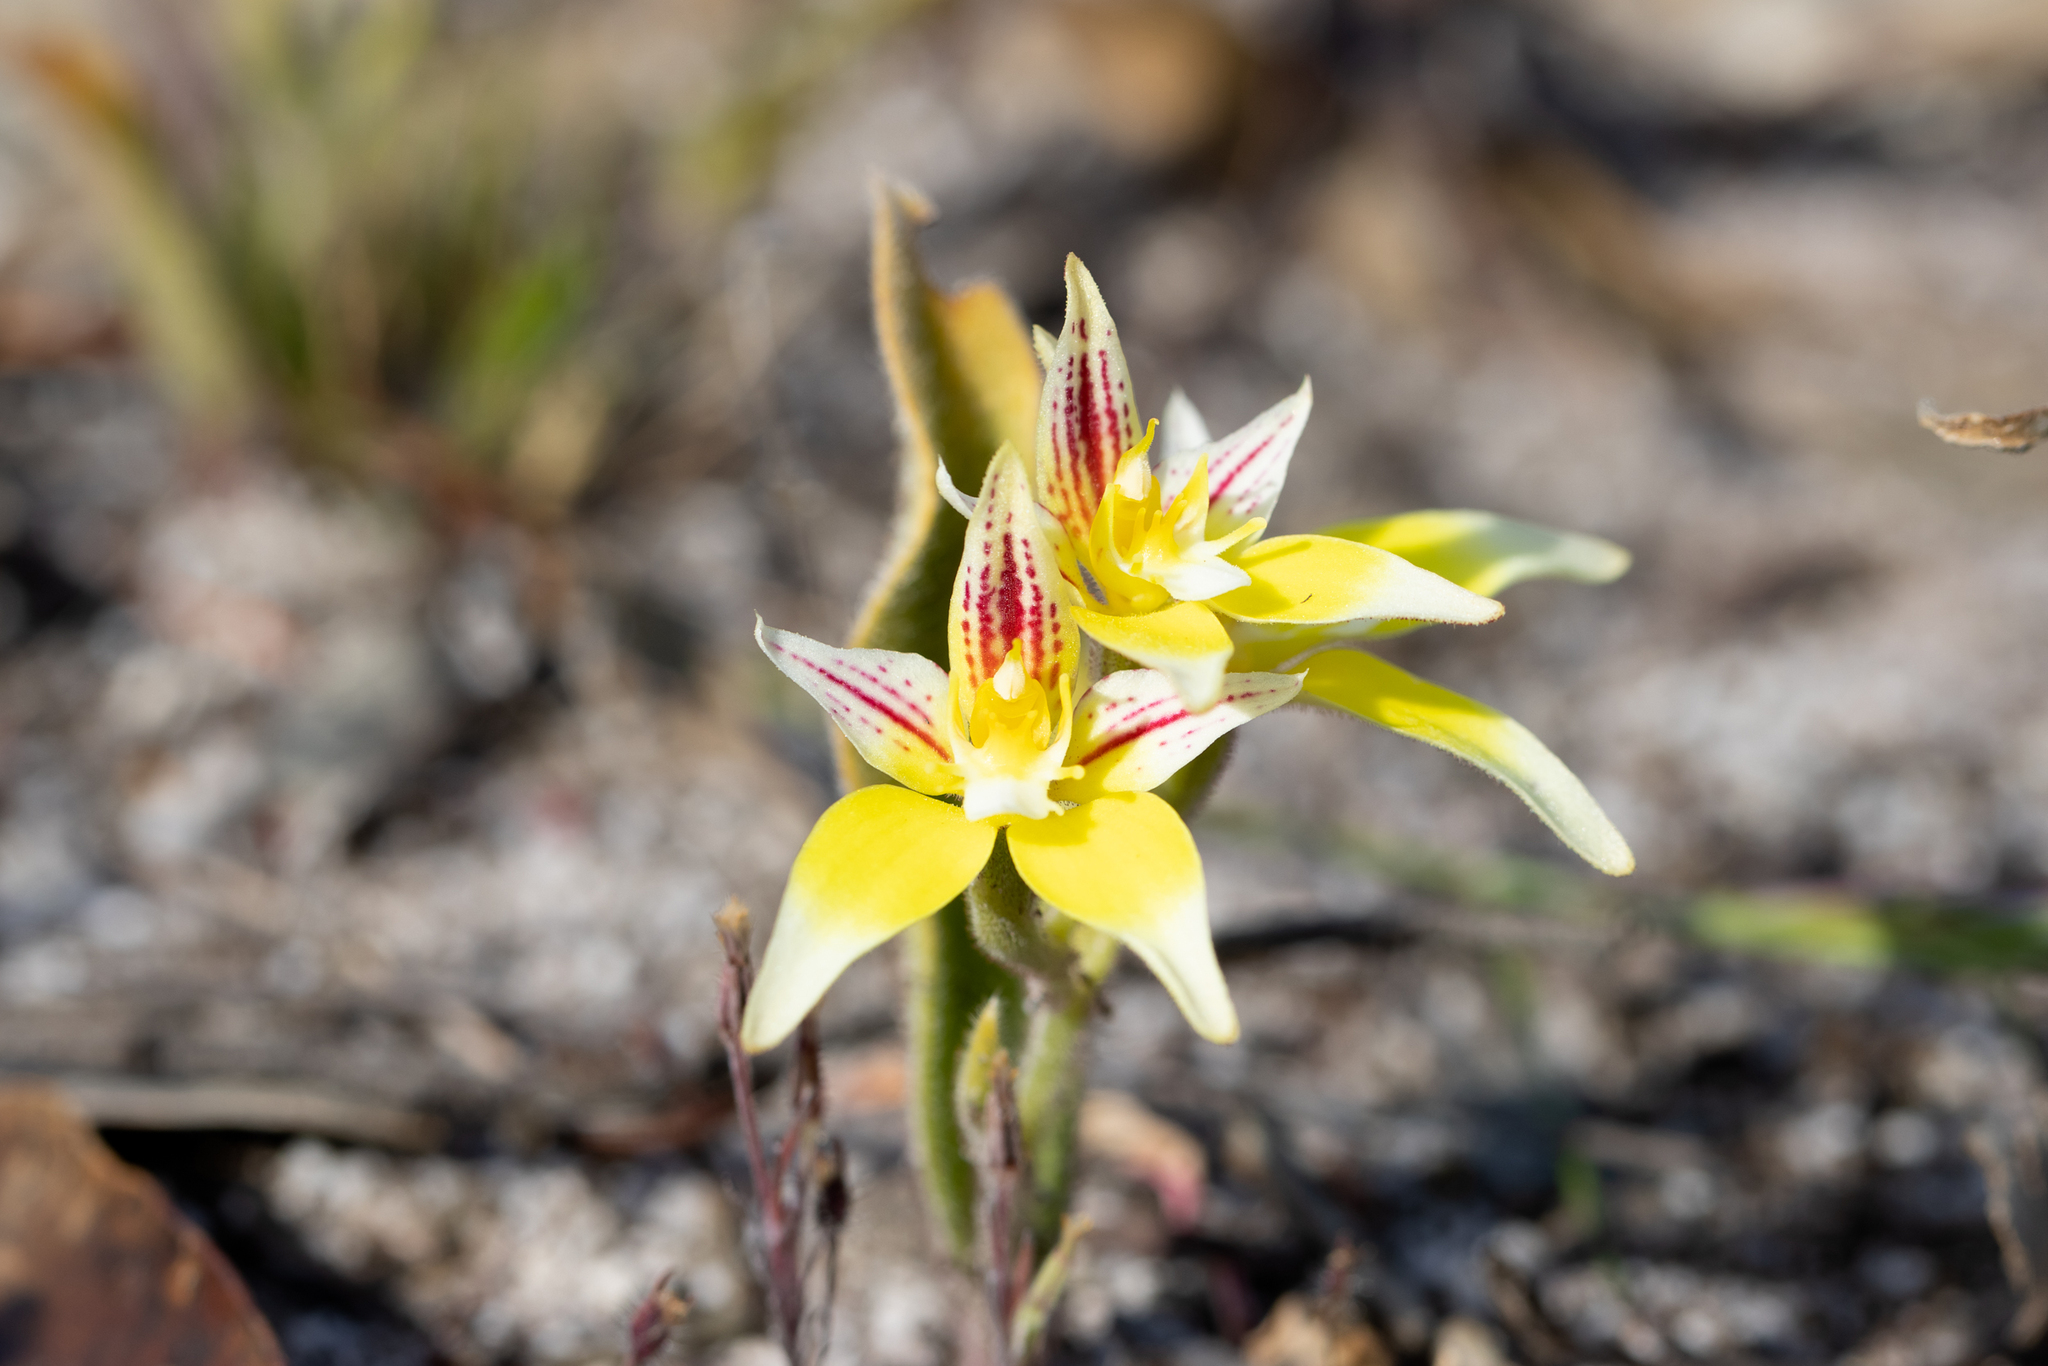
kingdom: Plantae
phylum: Tracheophyta
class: Liliopsida
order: Asparagales
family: Orchidaceae
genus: Caladenia
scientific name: Caladenia flava
